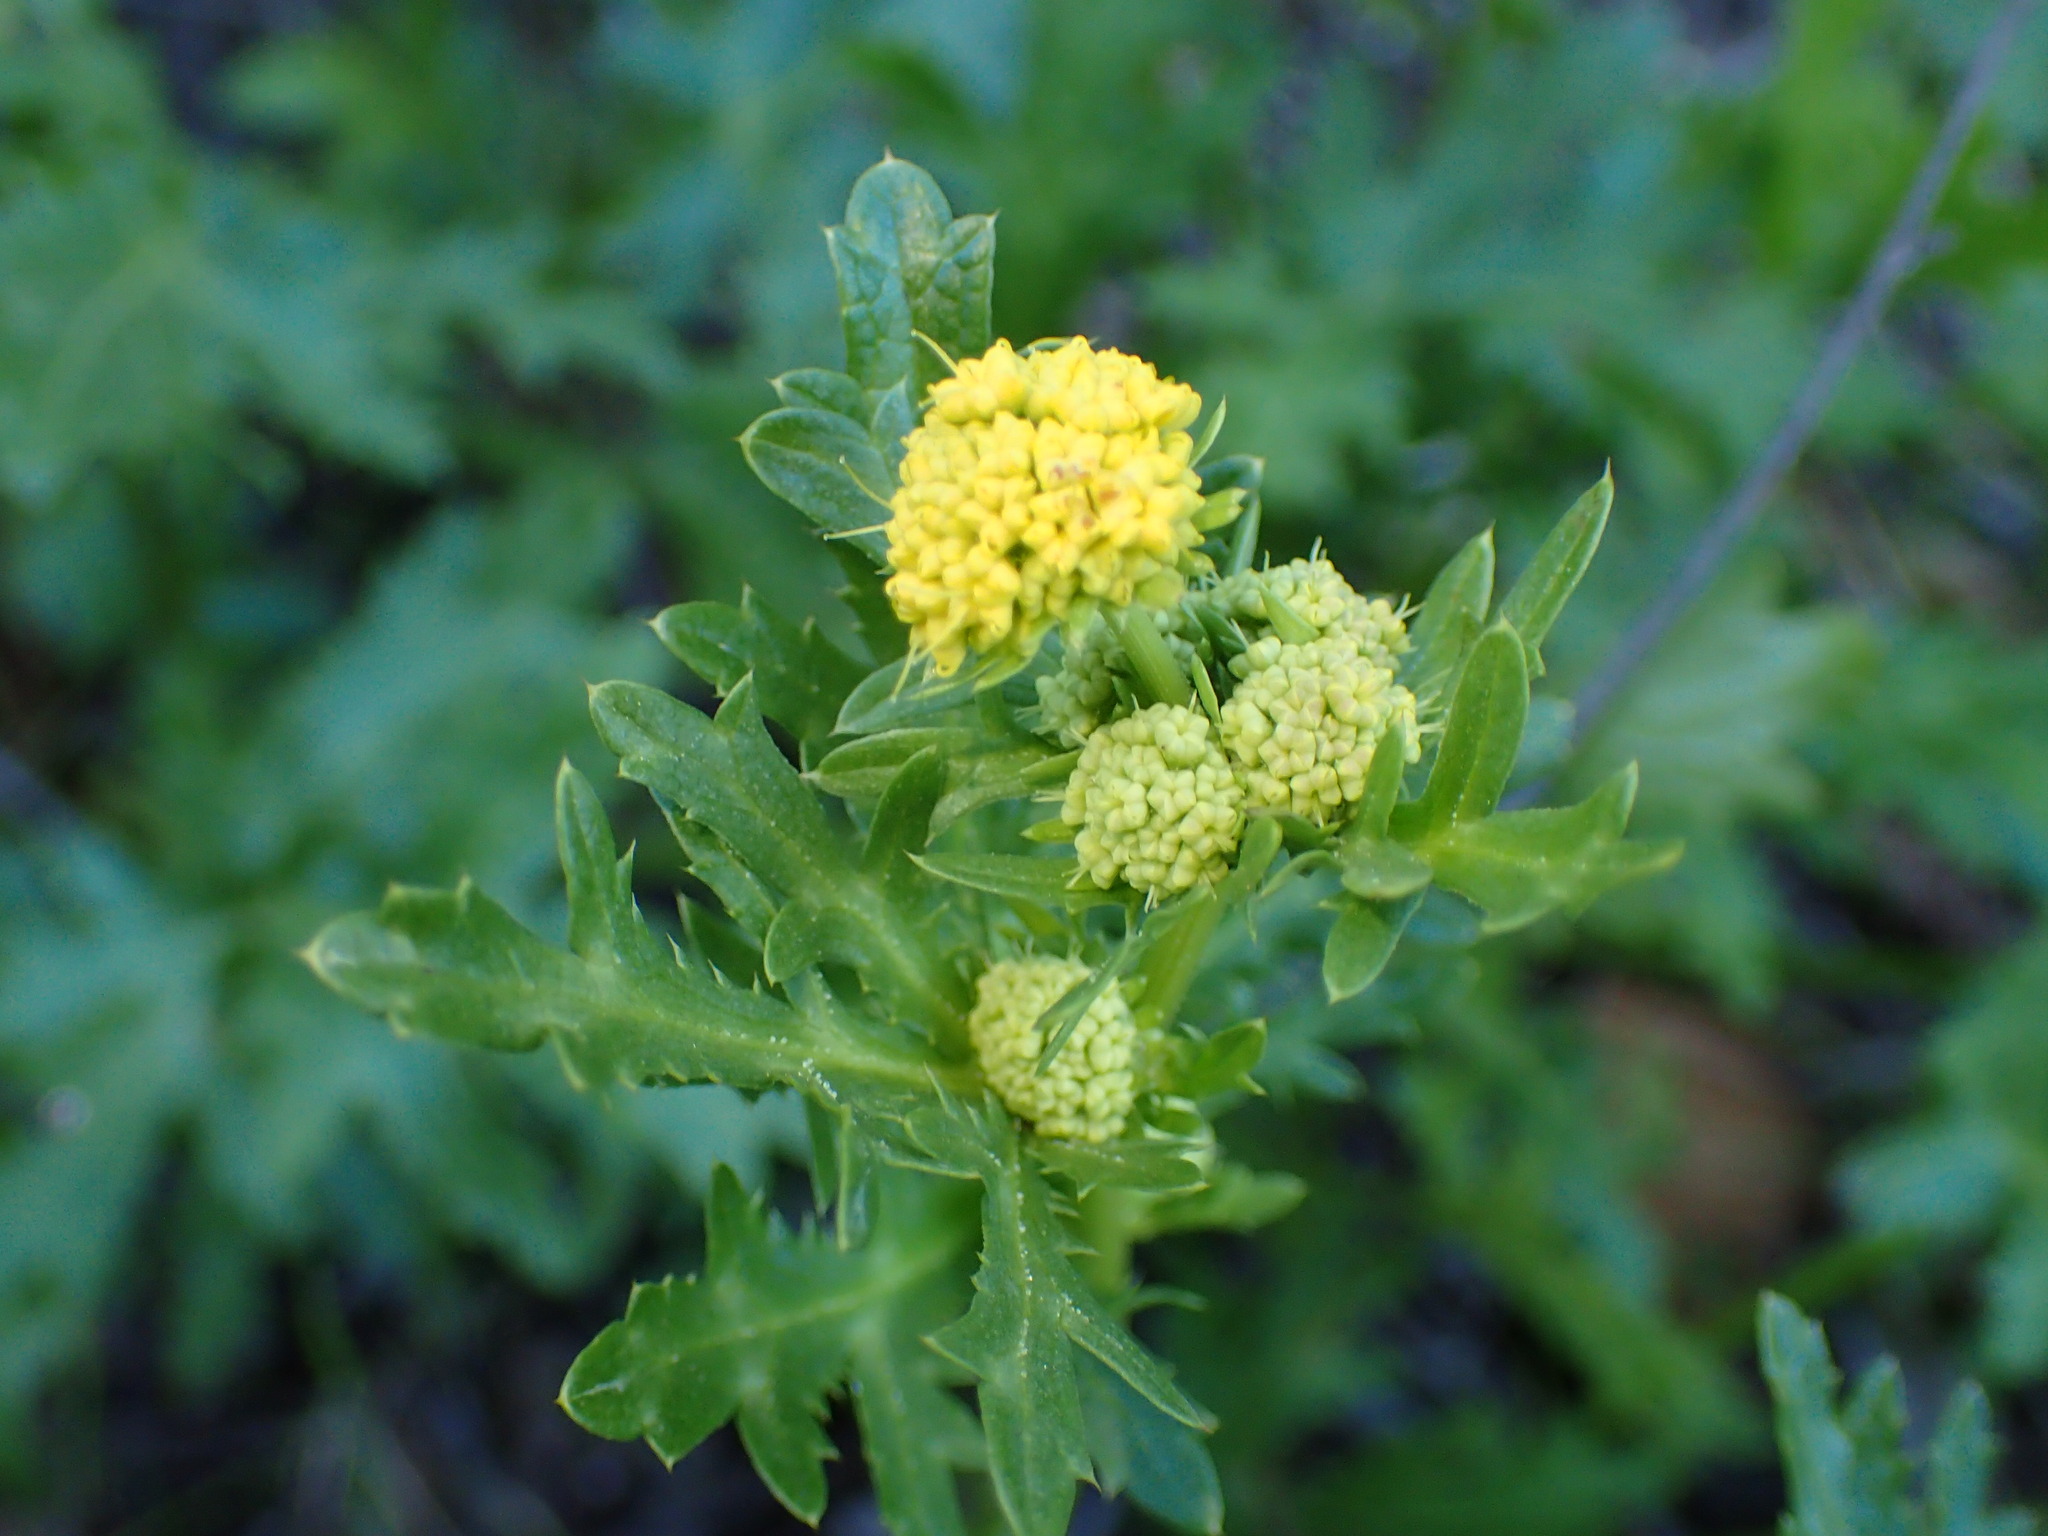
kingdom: Plantae
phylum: Tracheophyta
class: Magnoliopsida
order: Apiales
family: Apiaceae
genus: Sanicula
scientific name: Sanicula arguta
